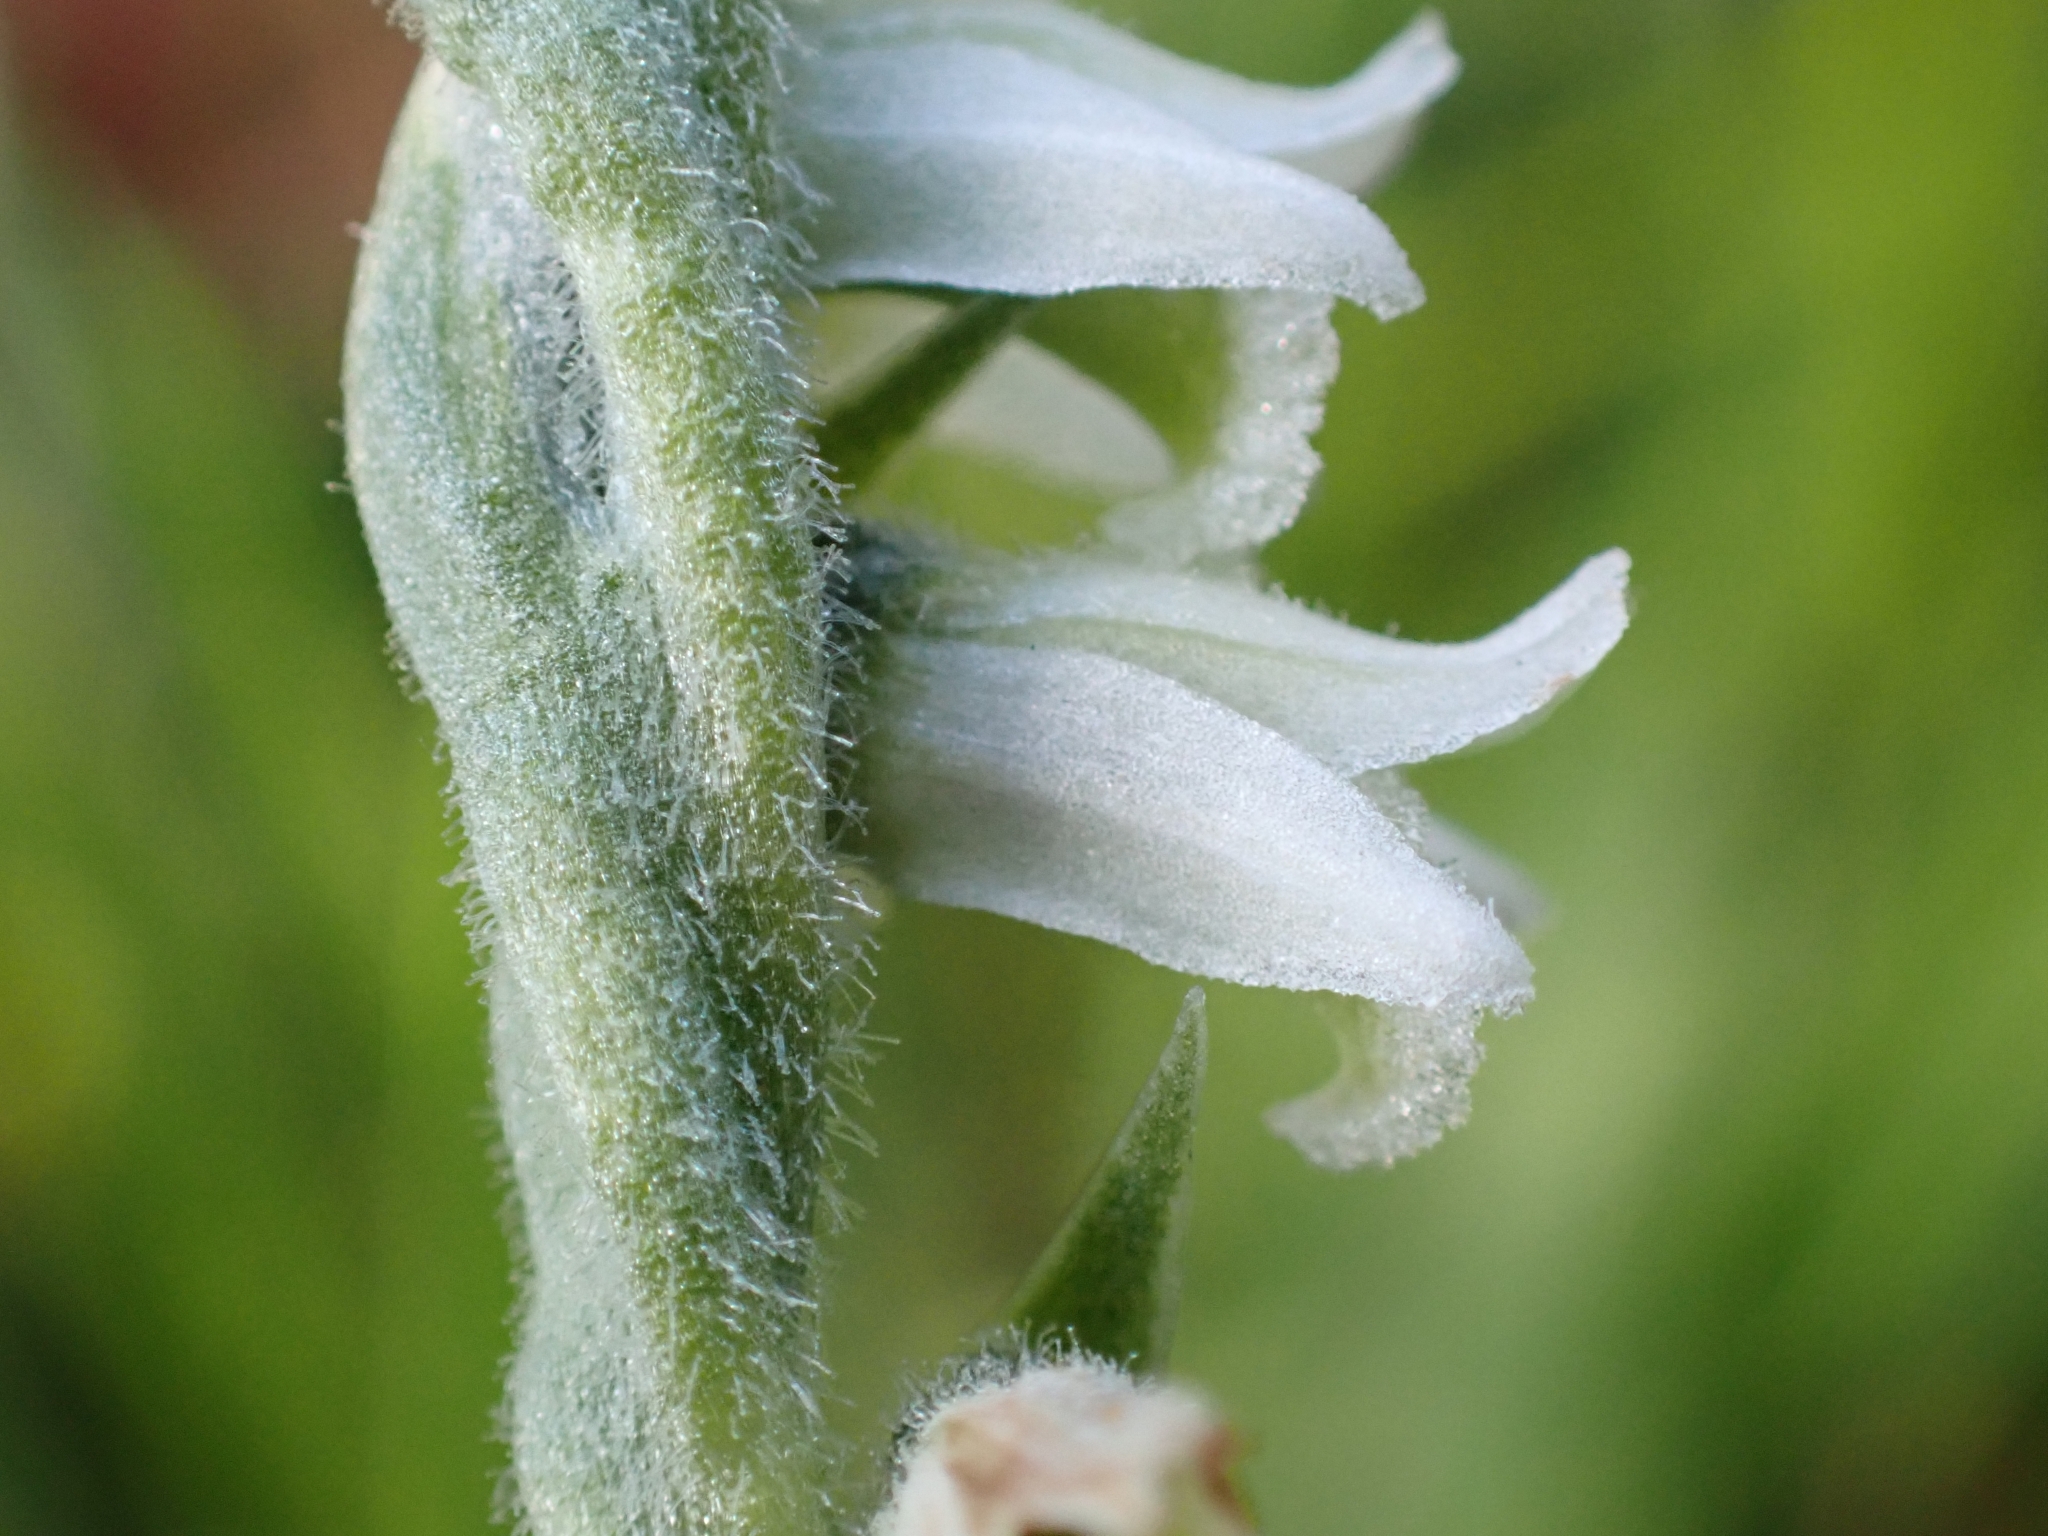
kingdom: Plantae
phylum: Tracheophyta
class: Liliopsida
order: Asparagales
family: Orchidaceae
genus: Spiranthes
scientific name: Spiranthes spiralis
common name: Autumn lady's-tresses
